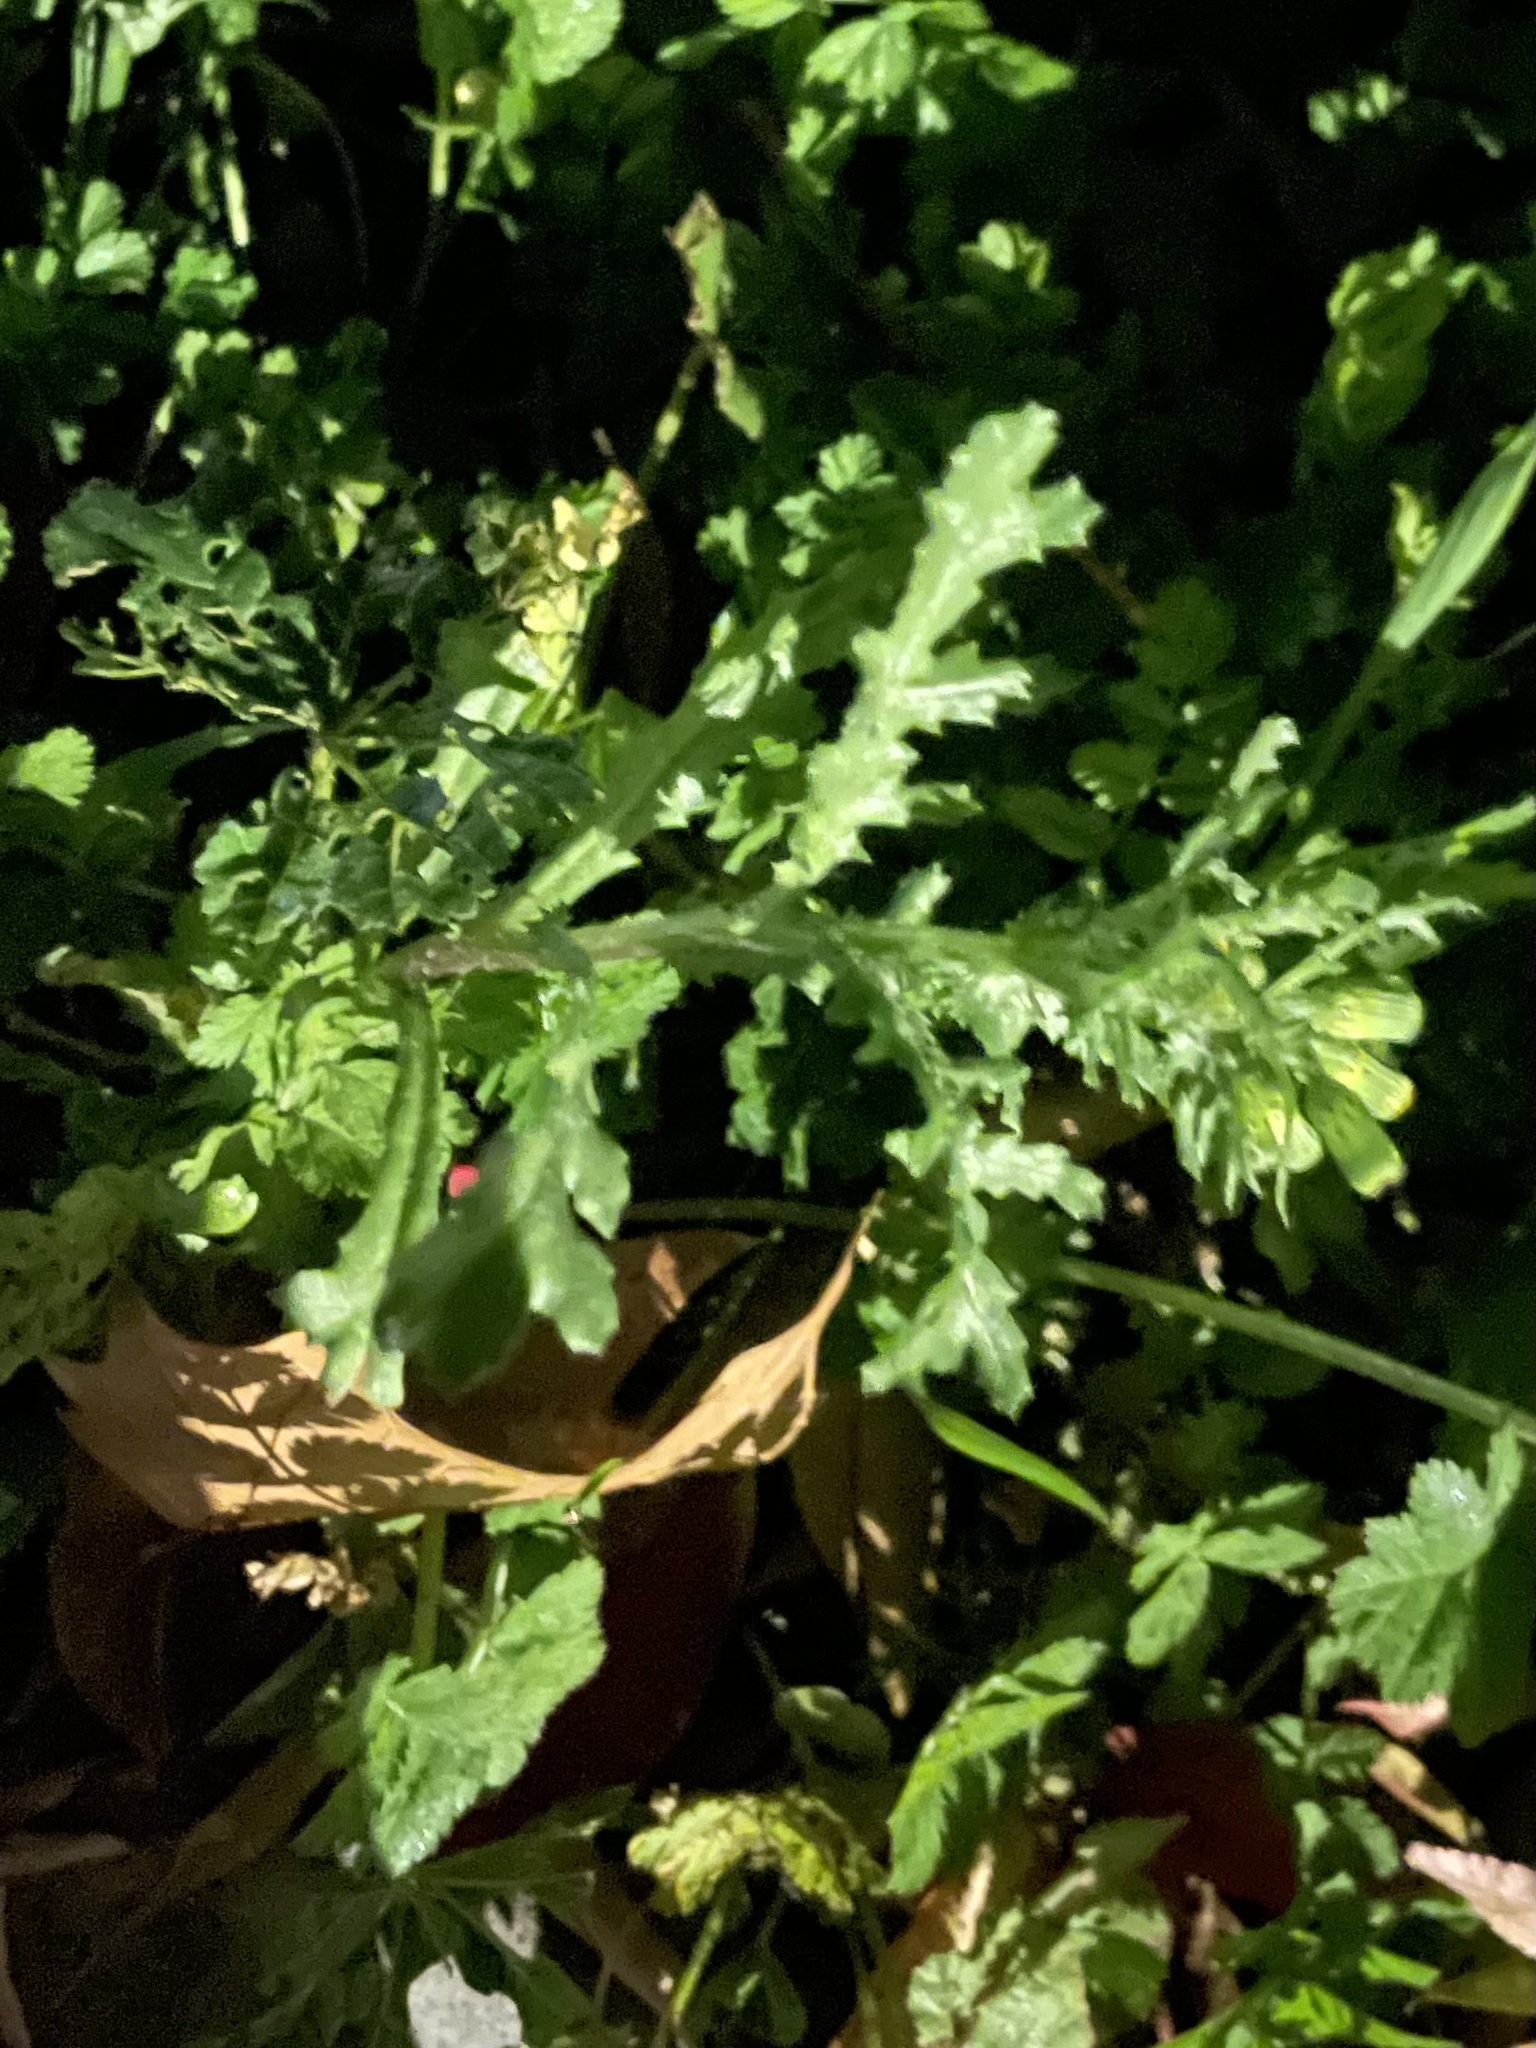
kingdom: Plantae
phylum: Tracheophyta
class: Magnoliopsida
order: Asterales
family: Asteraceae
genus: Senecio
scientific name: Senecio vulgaris
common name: Old-man-in-the-spring
